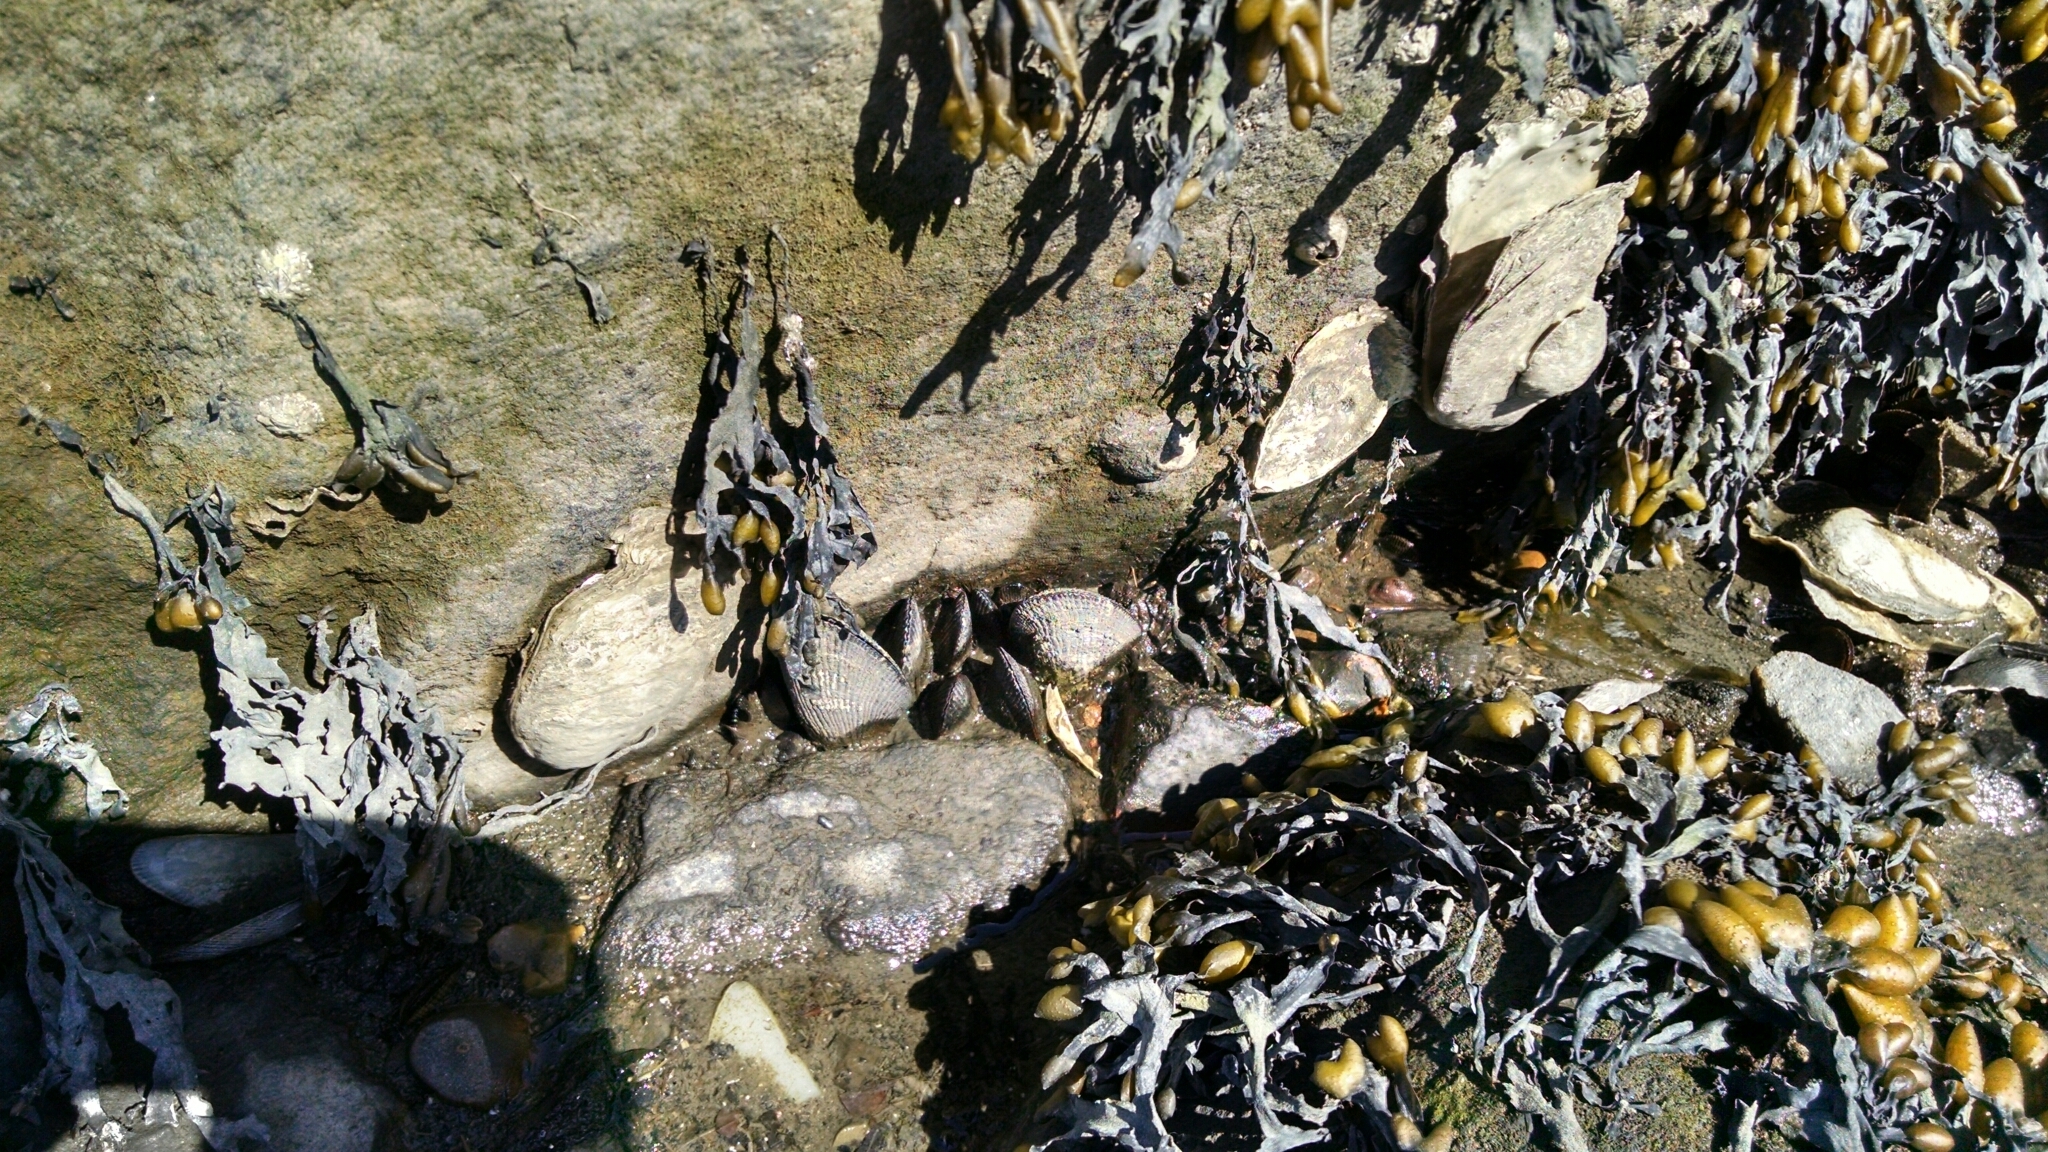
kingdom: Animalia
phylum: Mollusca
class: Bivalvia
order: Ostreida
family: Ostreidae
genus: Crassostrea
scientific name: Crassostrea virginica
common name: American oyster
